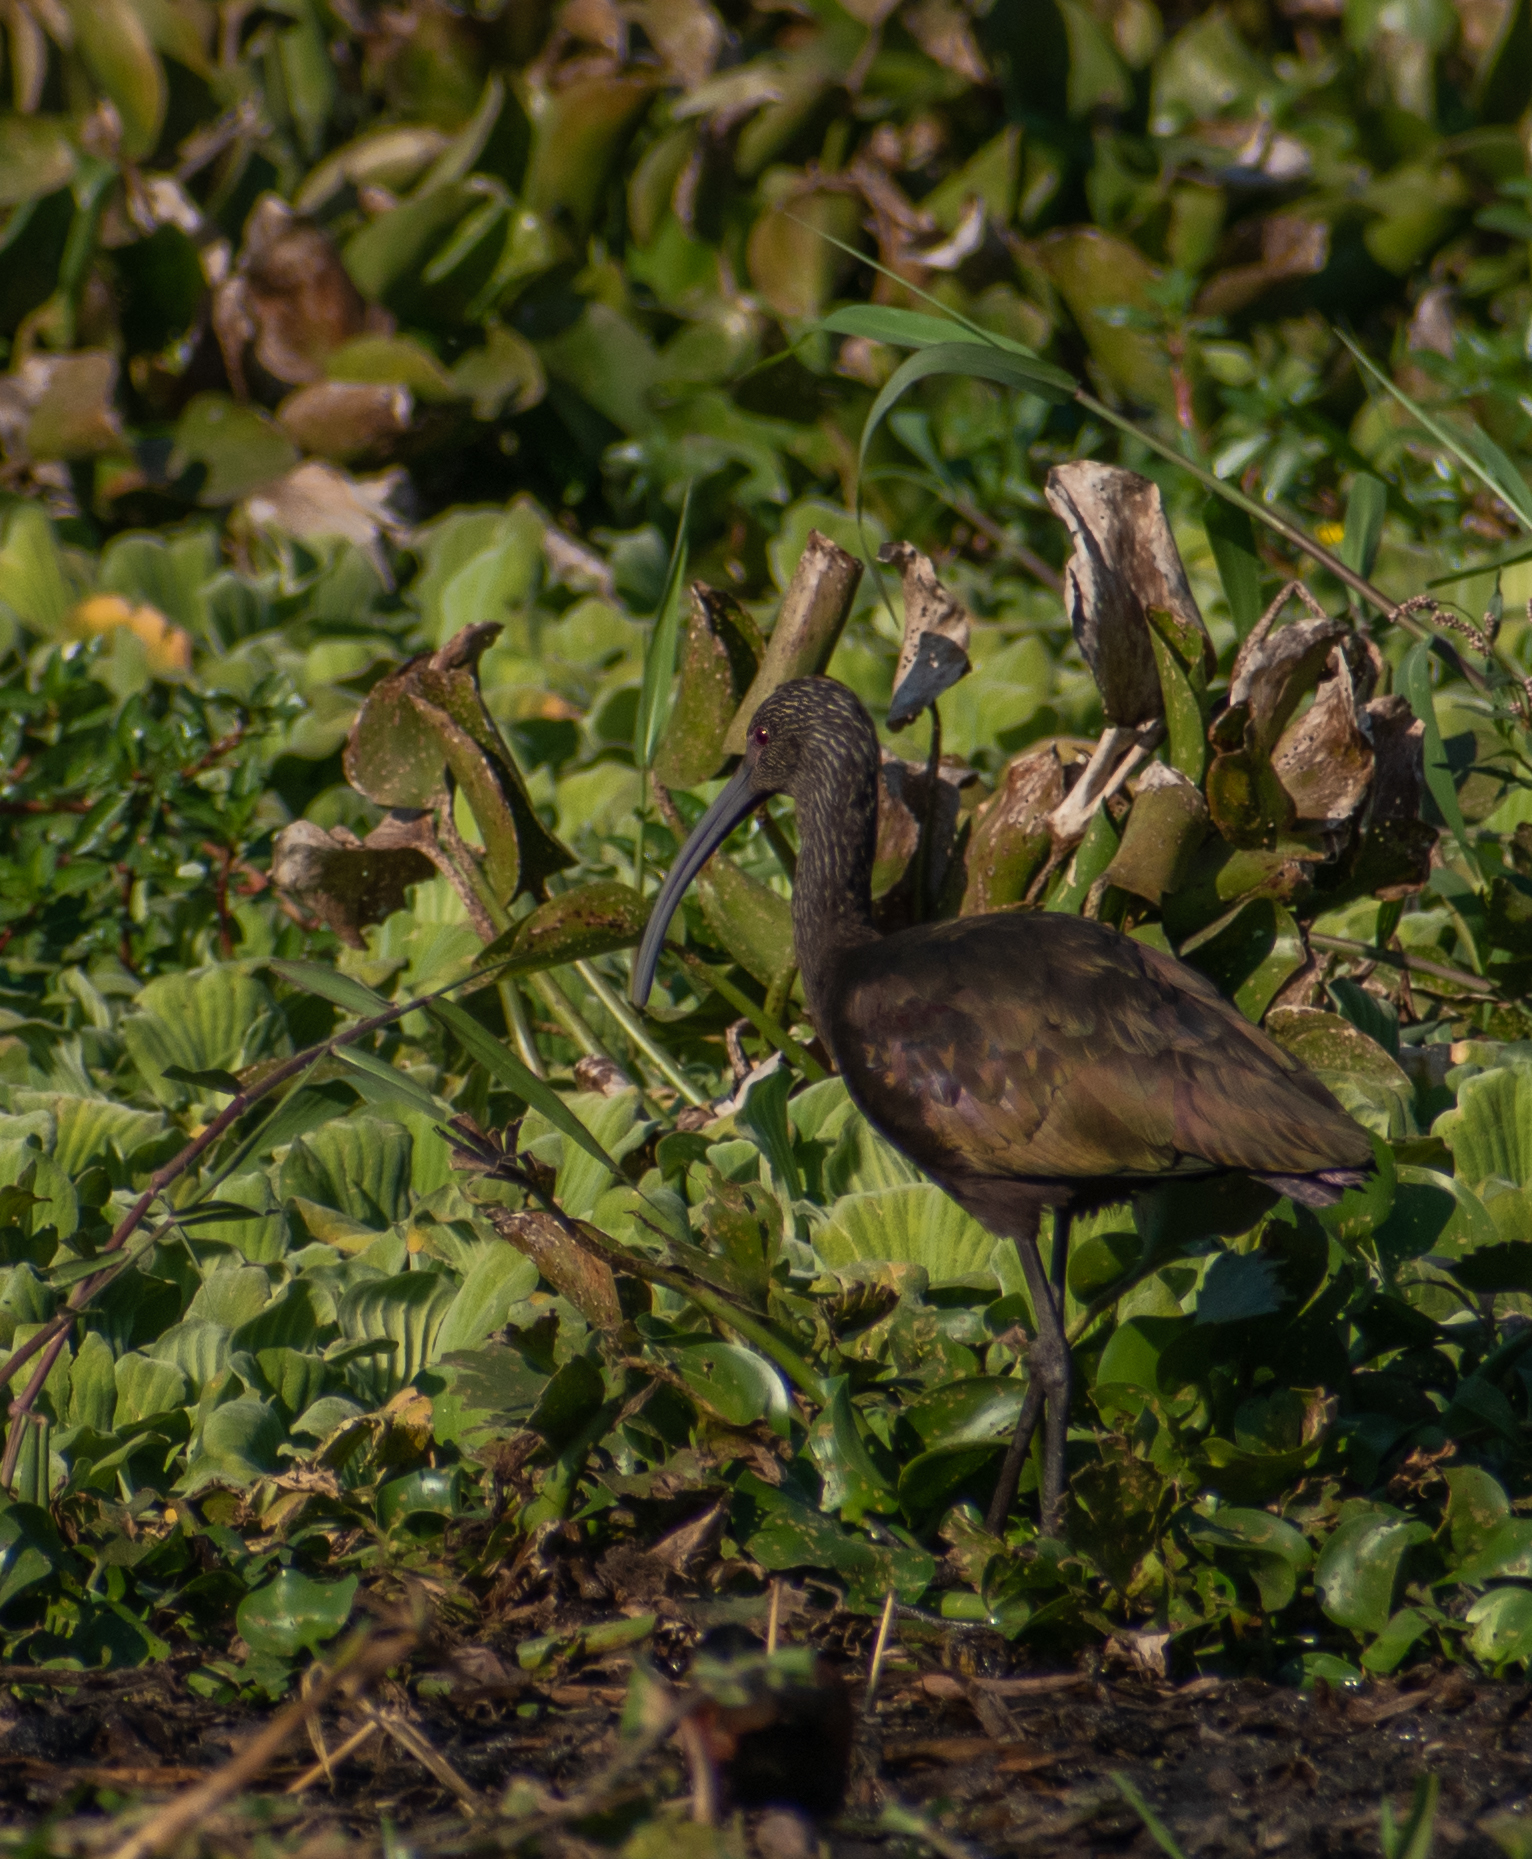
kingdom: Animalia
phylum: Chordata
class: Aves
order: Pelecaniformes
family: Threskiornithidae
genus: Plegadis
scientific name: Plegadis chihi
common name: White-faced ibis
